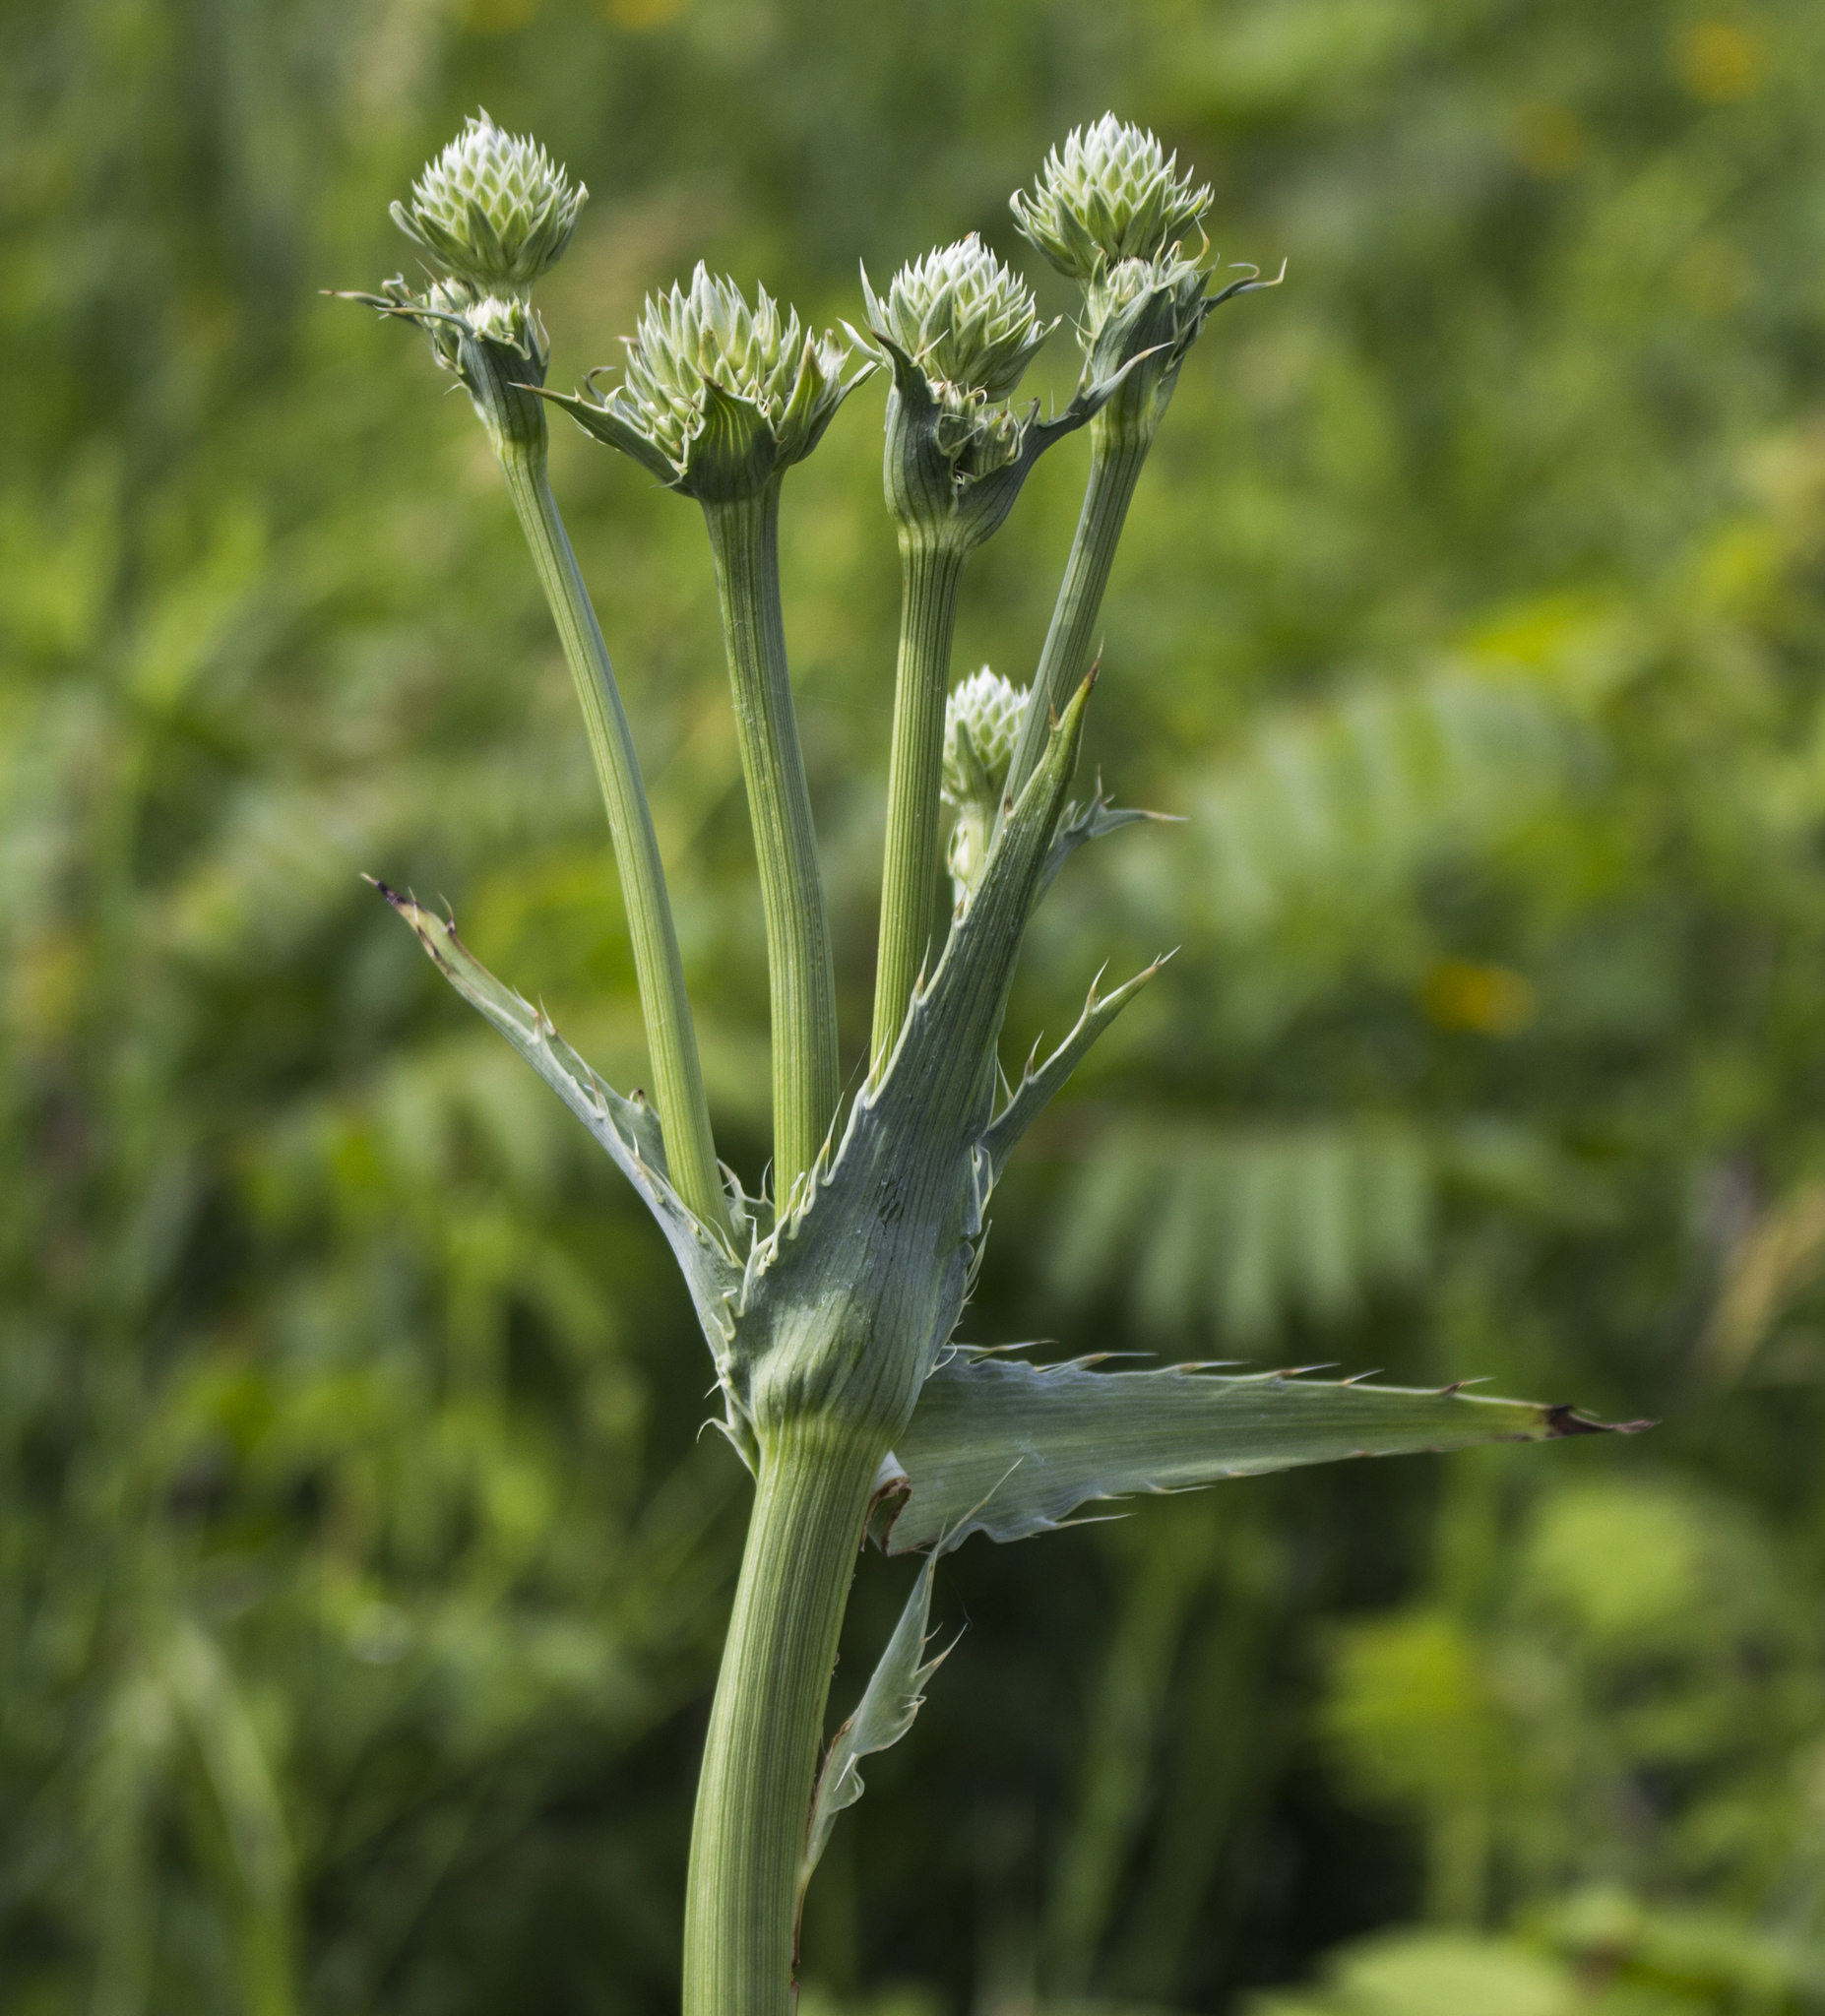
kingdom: Plantae
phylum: Tracheophyta
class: Magnoliopsida
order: Apiales
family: Apiaceae
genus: Eryngium
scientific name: Eryngium yuccifolium
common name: Button eryngo
